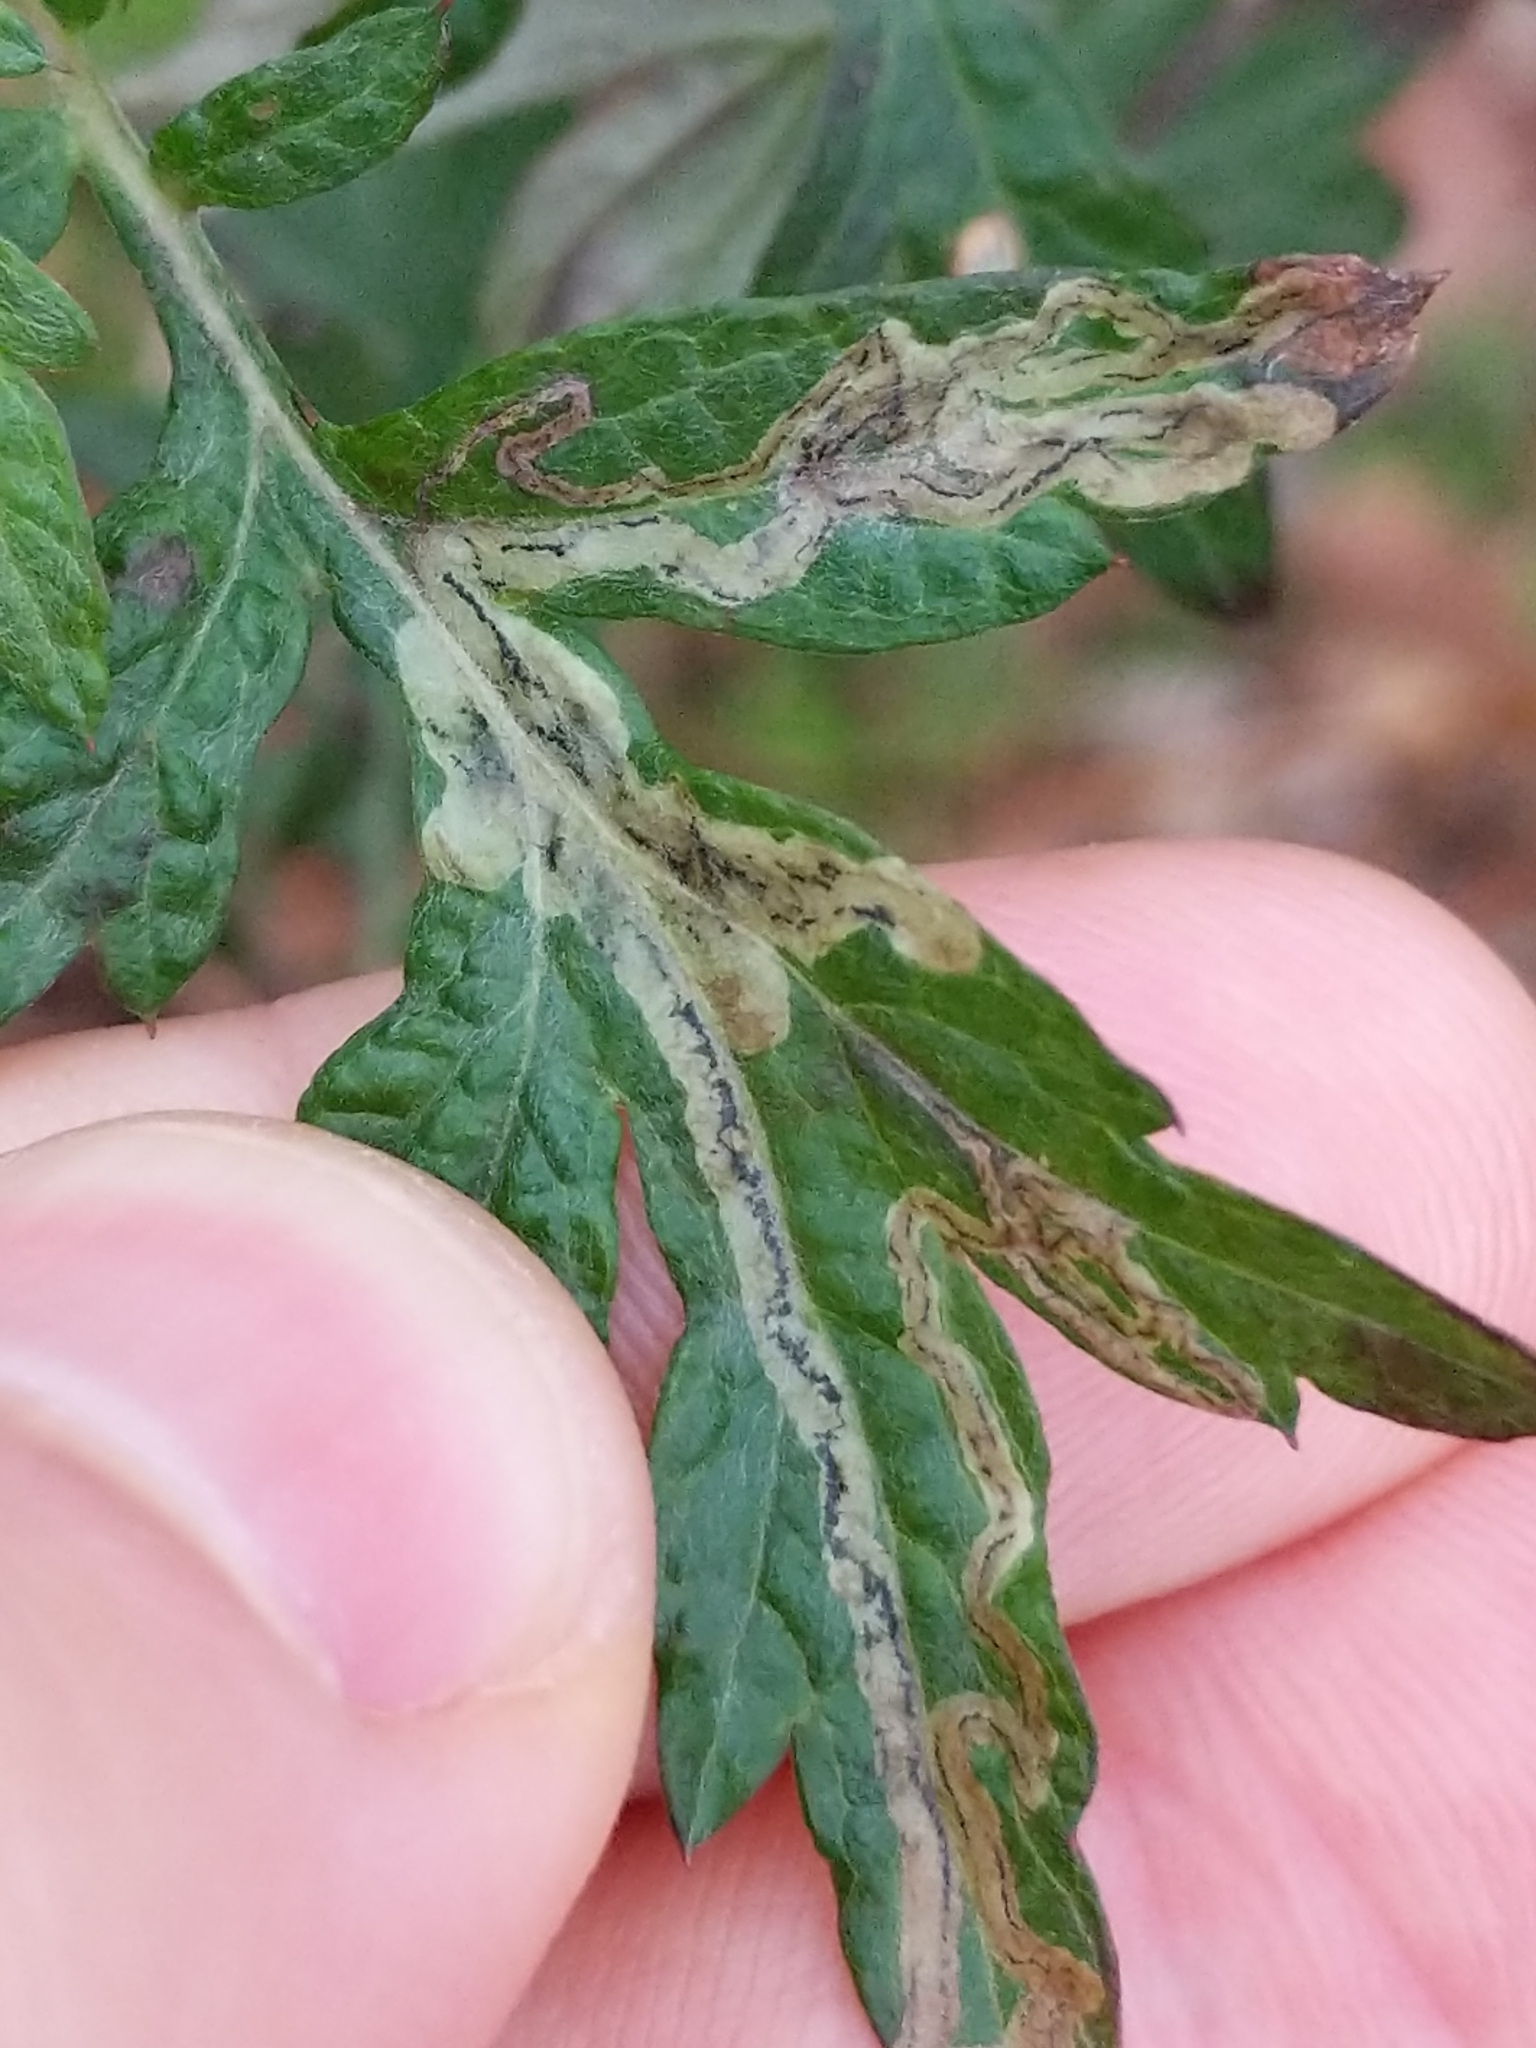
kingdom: Animalia
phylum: Arthropoda
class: Insecta
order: Diptera
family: Agromyzidae
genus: Liriomyza
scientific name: Liriomyza ptarmicae
